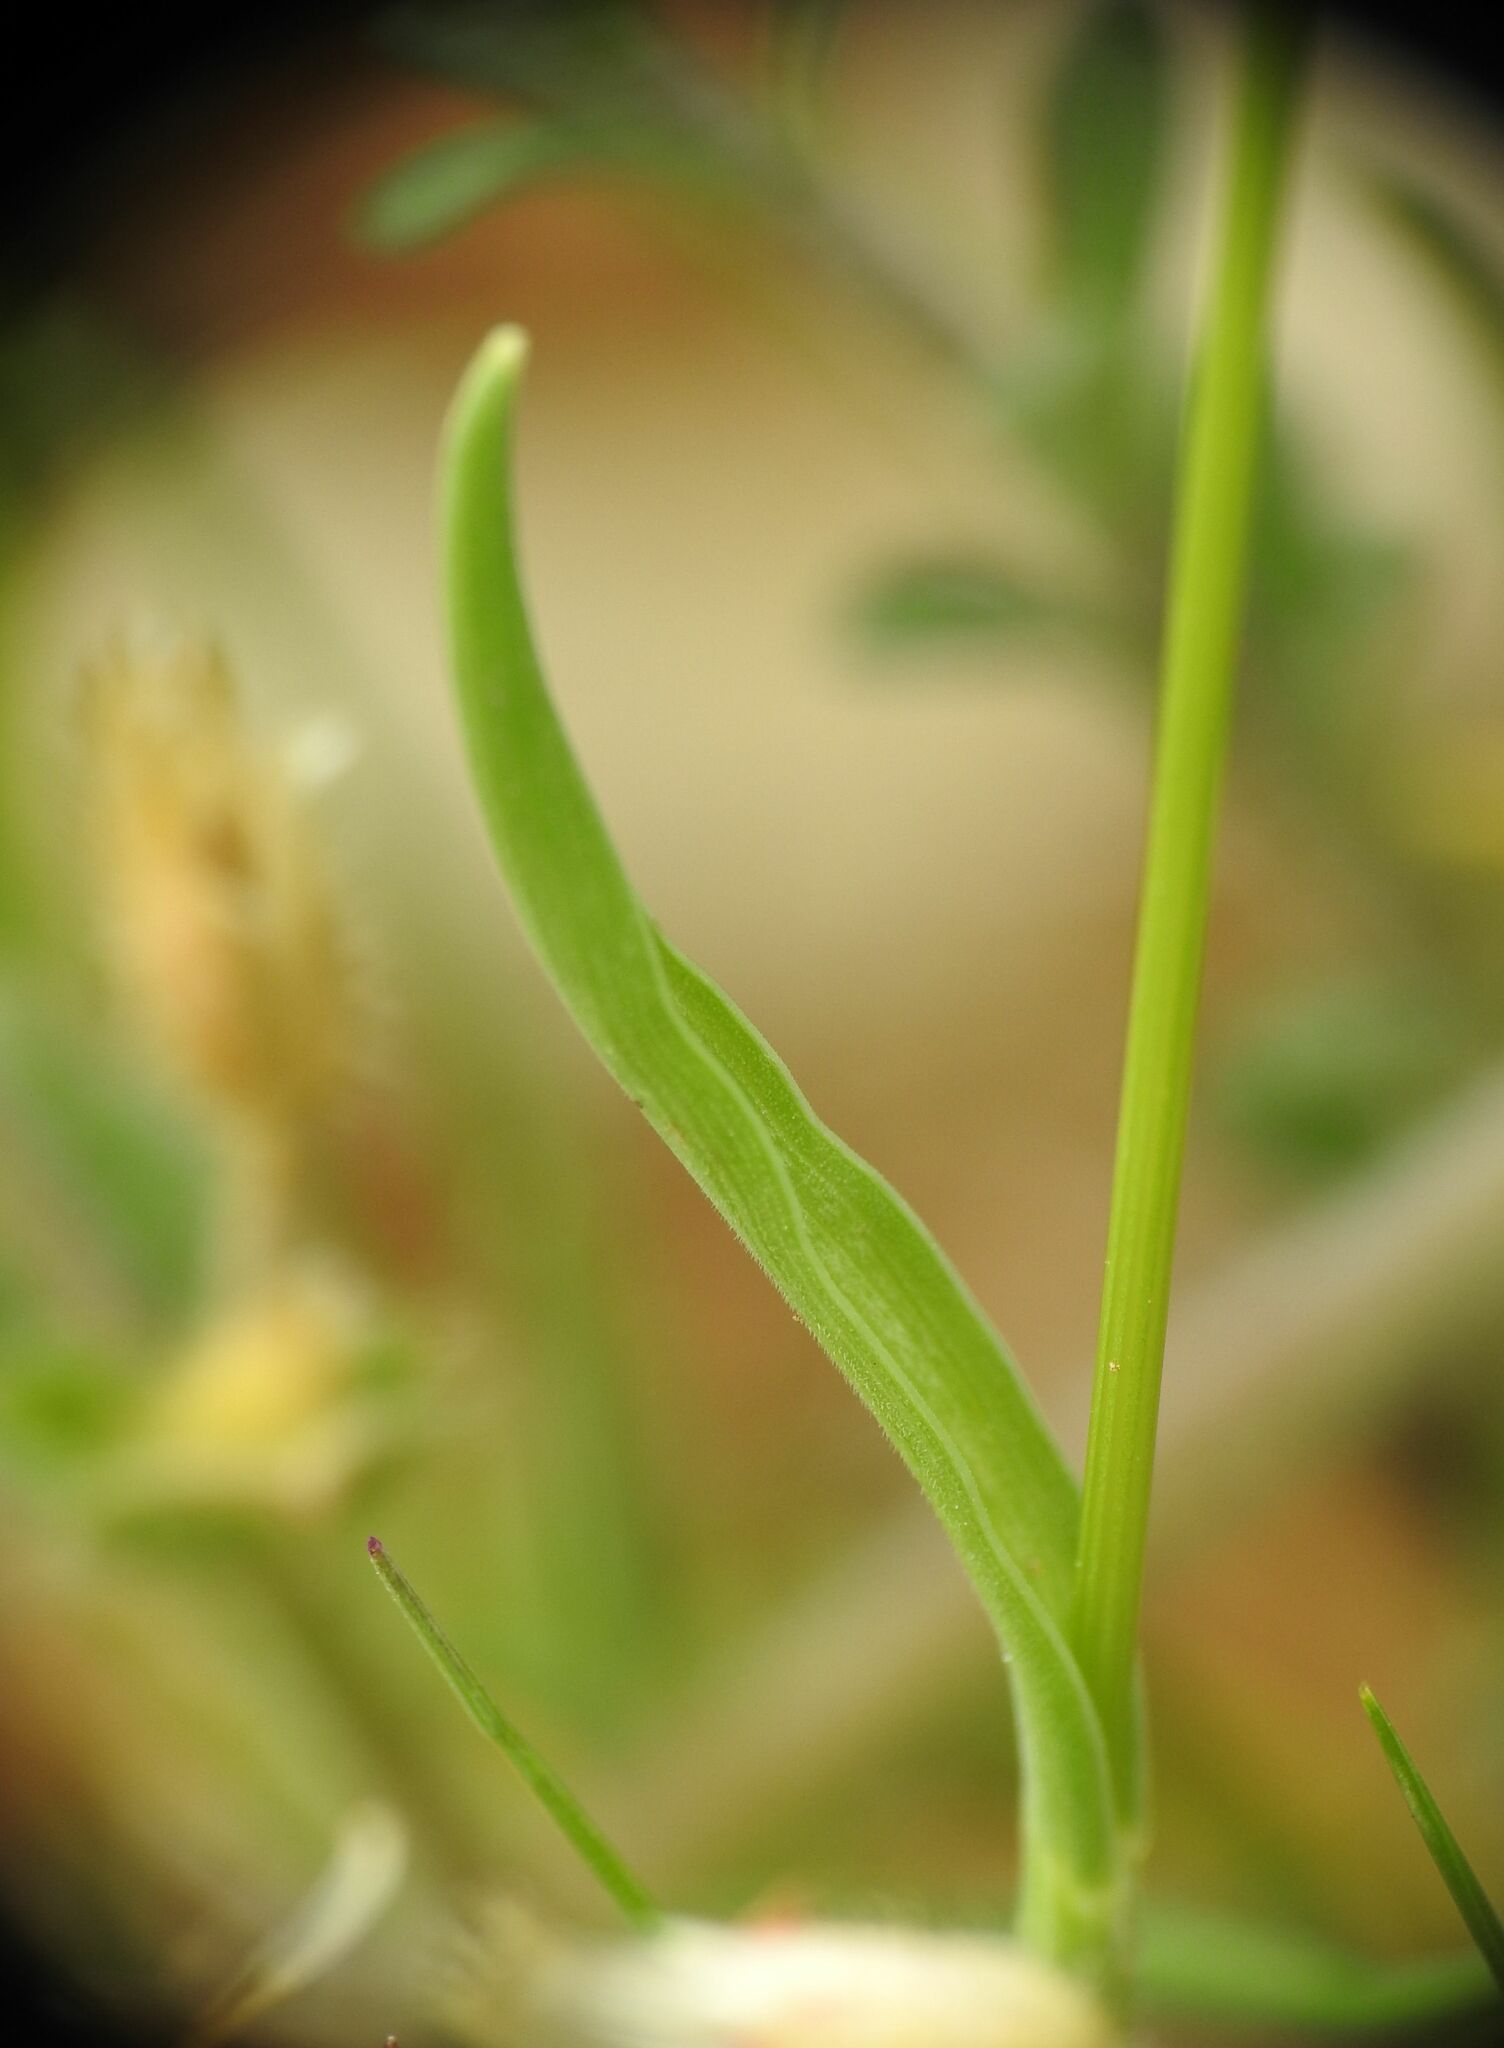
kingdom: Plantae
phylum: Tracheophyta
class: Liliopsida
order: Poales
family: Poaceae
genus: Echinaria
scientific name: Echinaria capitata
